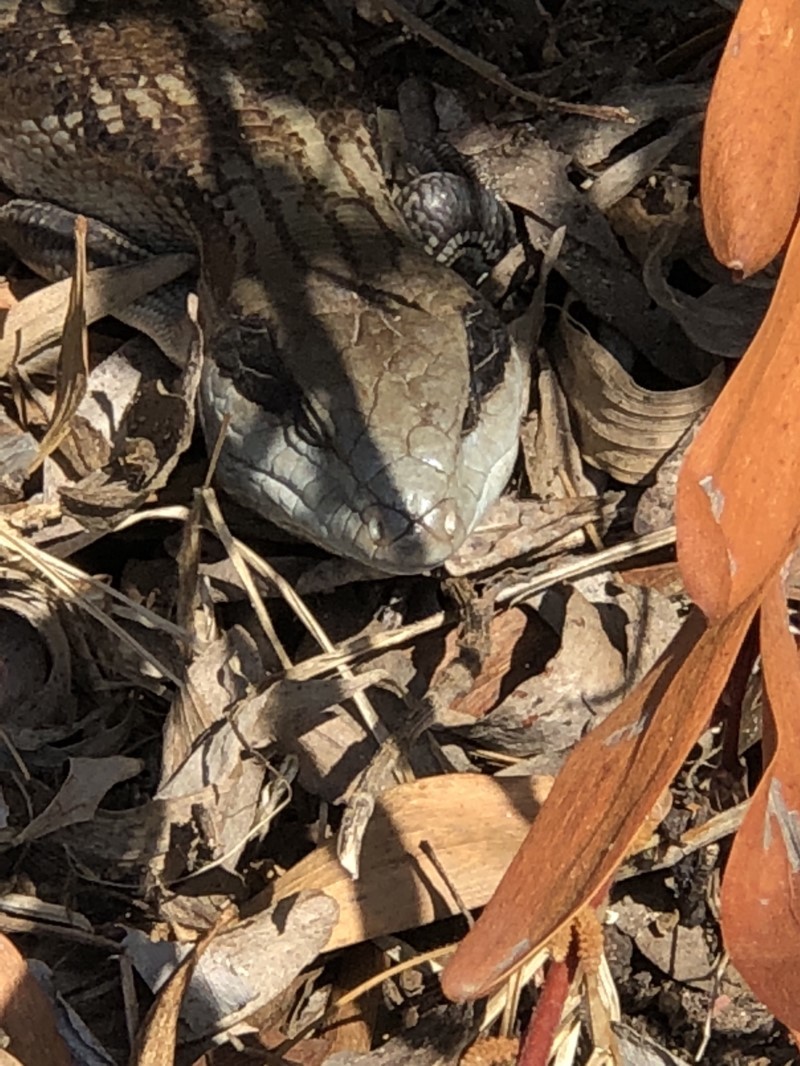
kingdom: Animalia
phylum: Chordata
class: Squamata
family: Scincidae
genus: Tiliqua
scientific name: Tiliqua scincoides
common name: Common bluetongue
